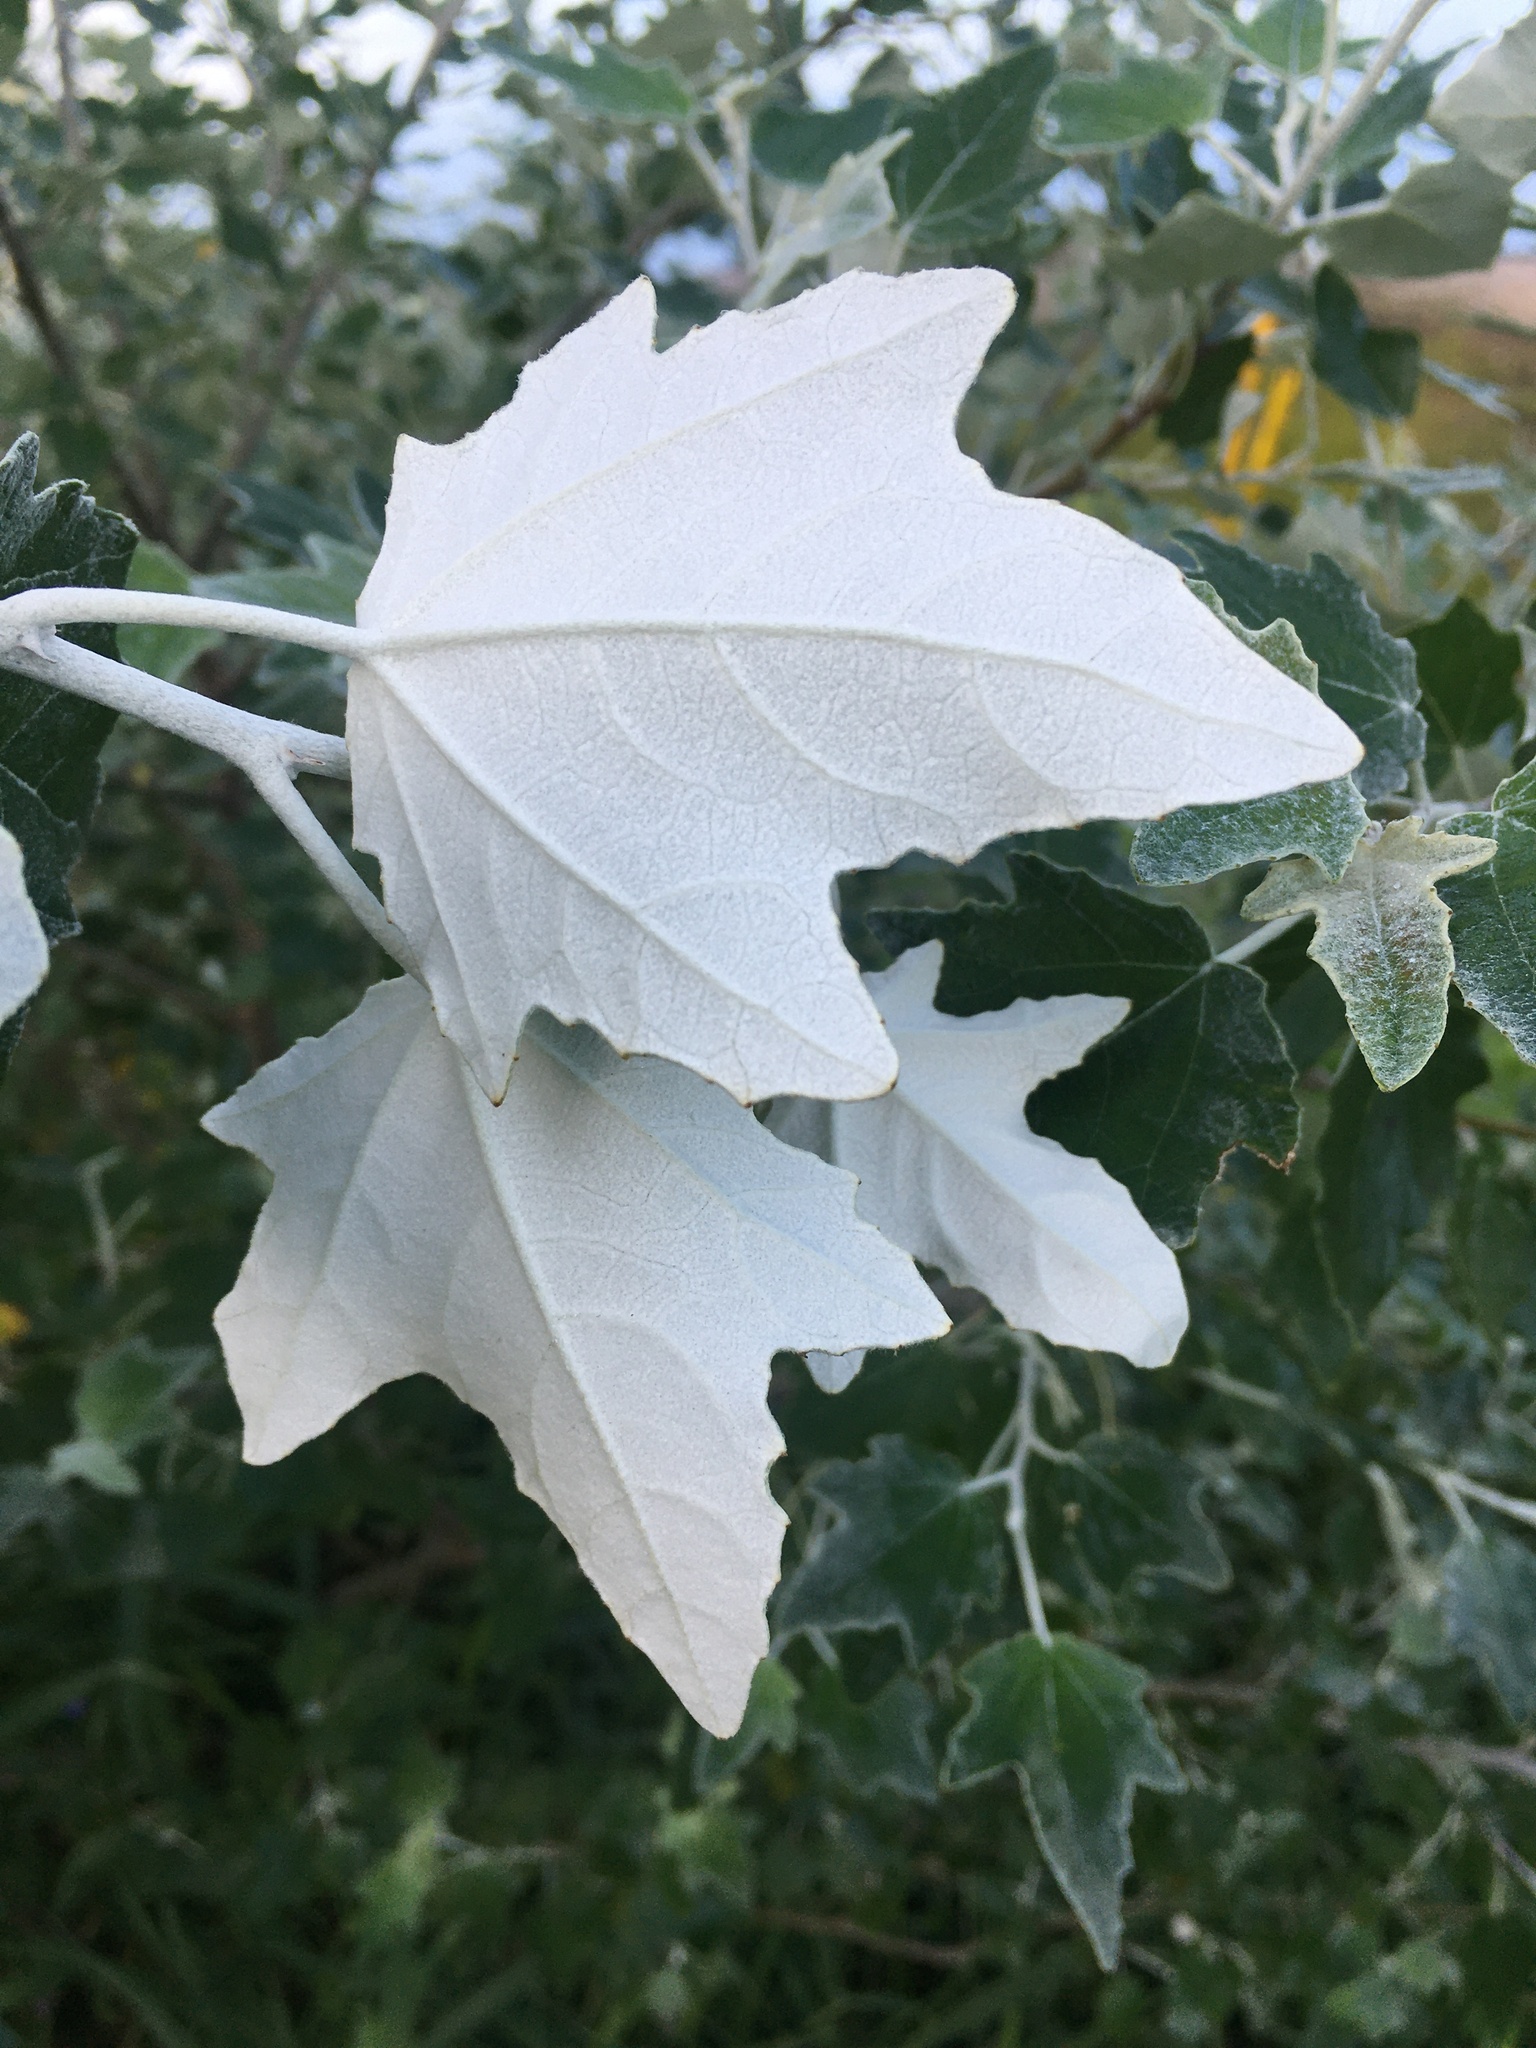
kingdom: Plantae
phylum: Tracheophyta
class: Magnoliopsida
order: Malpighiales
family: Salicaceae
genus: Populus
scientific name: Populus alba
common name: White poplar
